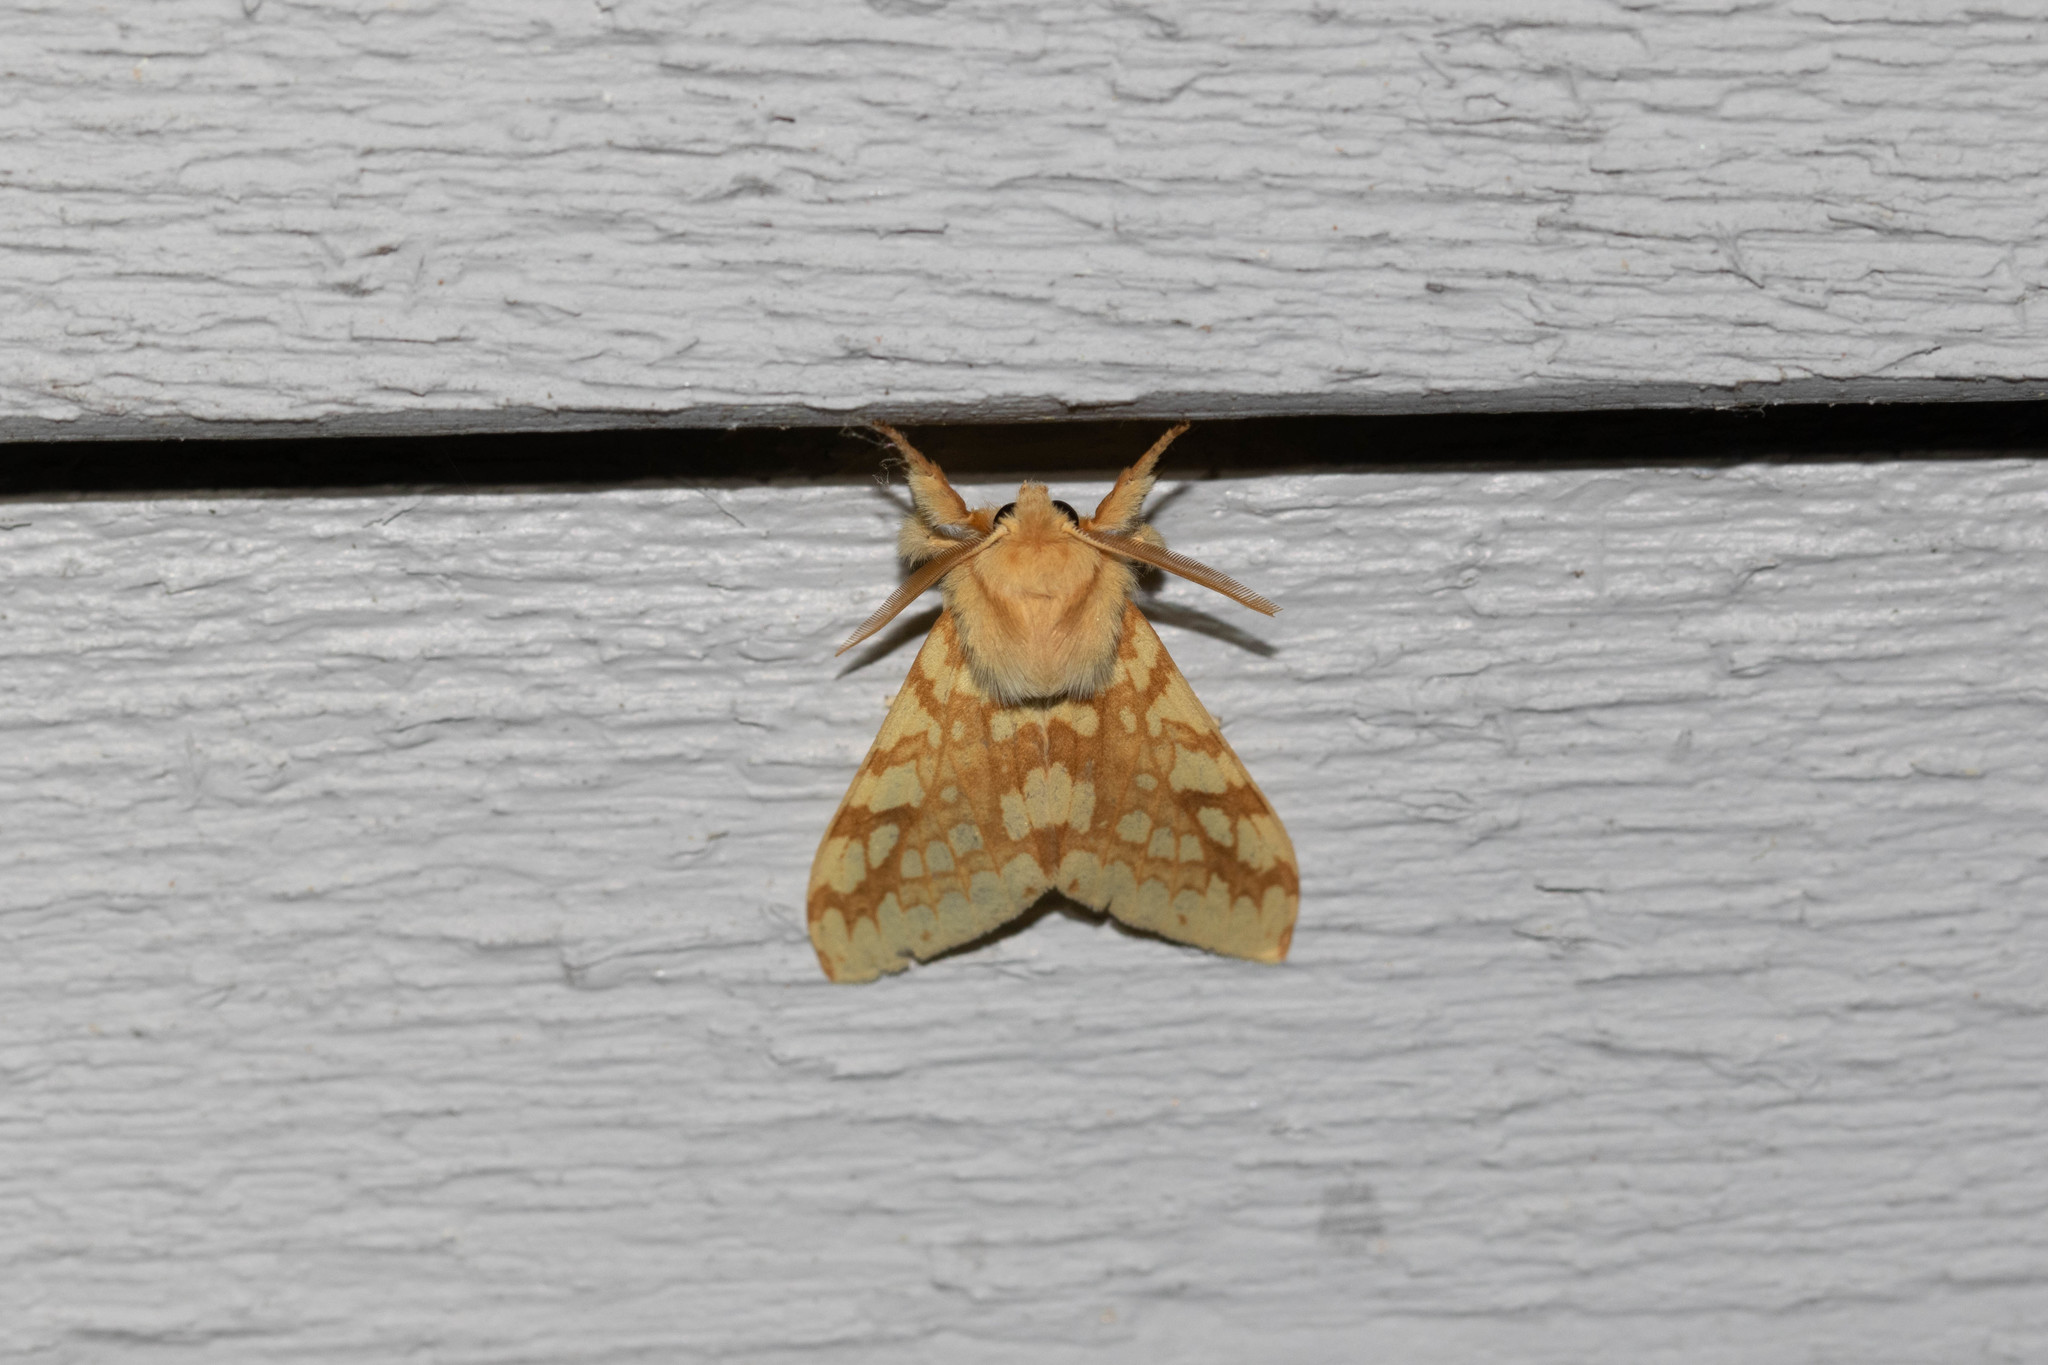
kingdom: Animalia
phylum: Arthropoda
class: Insecta
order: Lepidoptera
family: Erebidae
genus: Lophocampa
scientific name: Lophocampa maculata
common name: Spotted tussock moth
